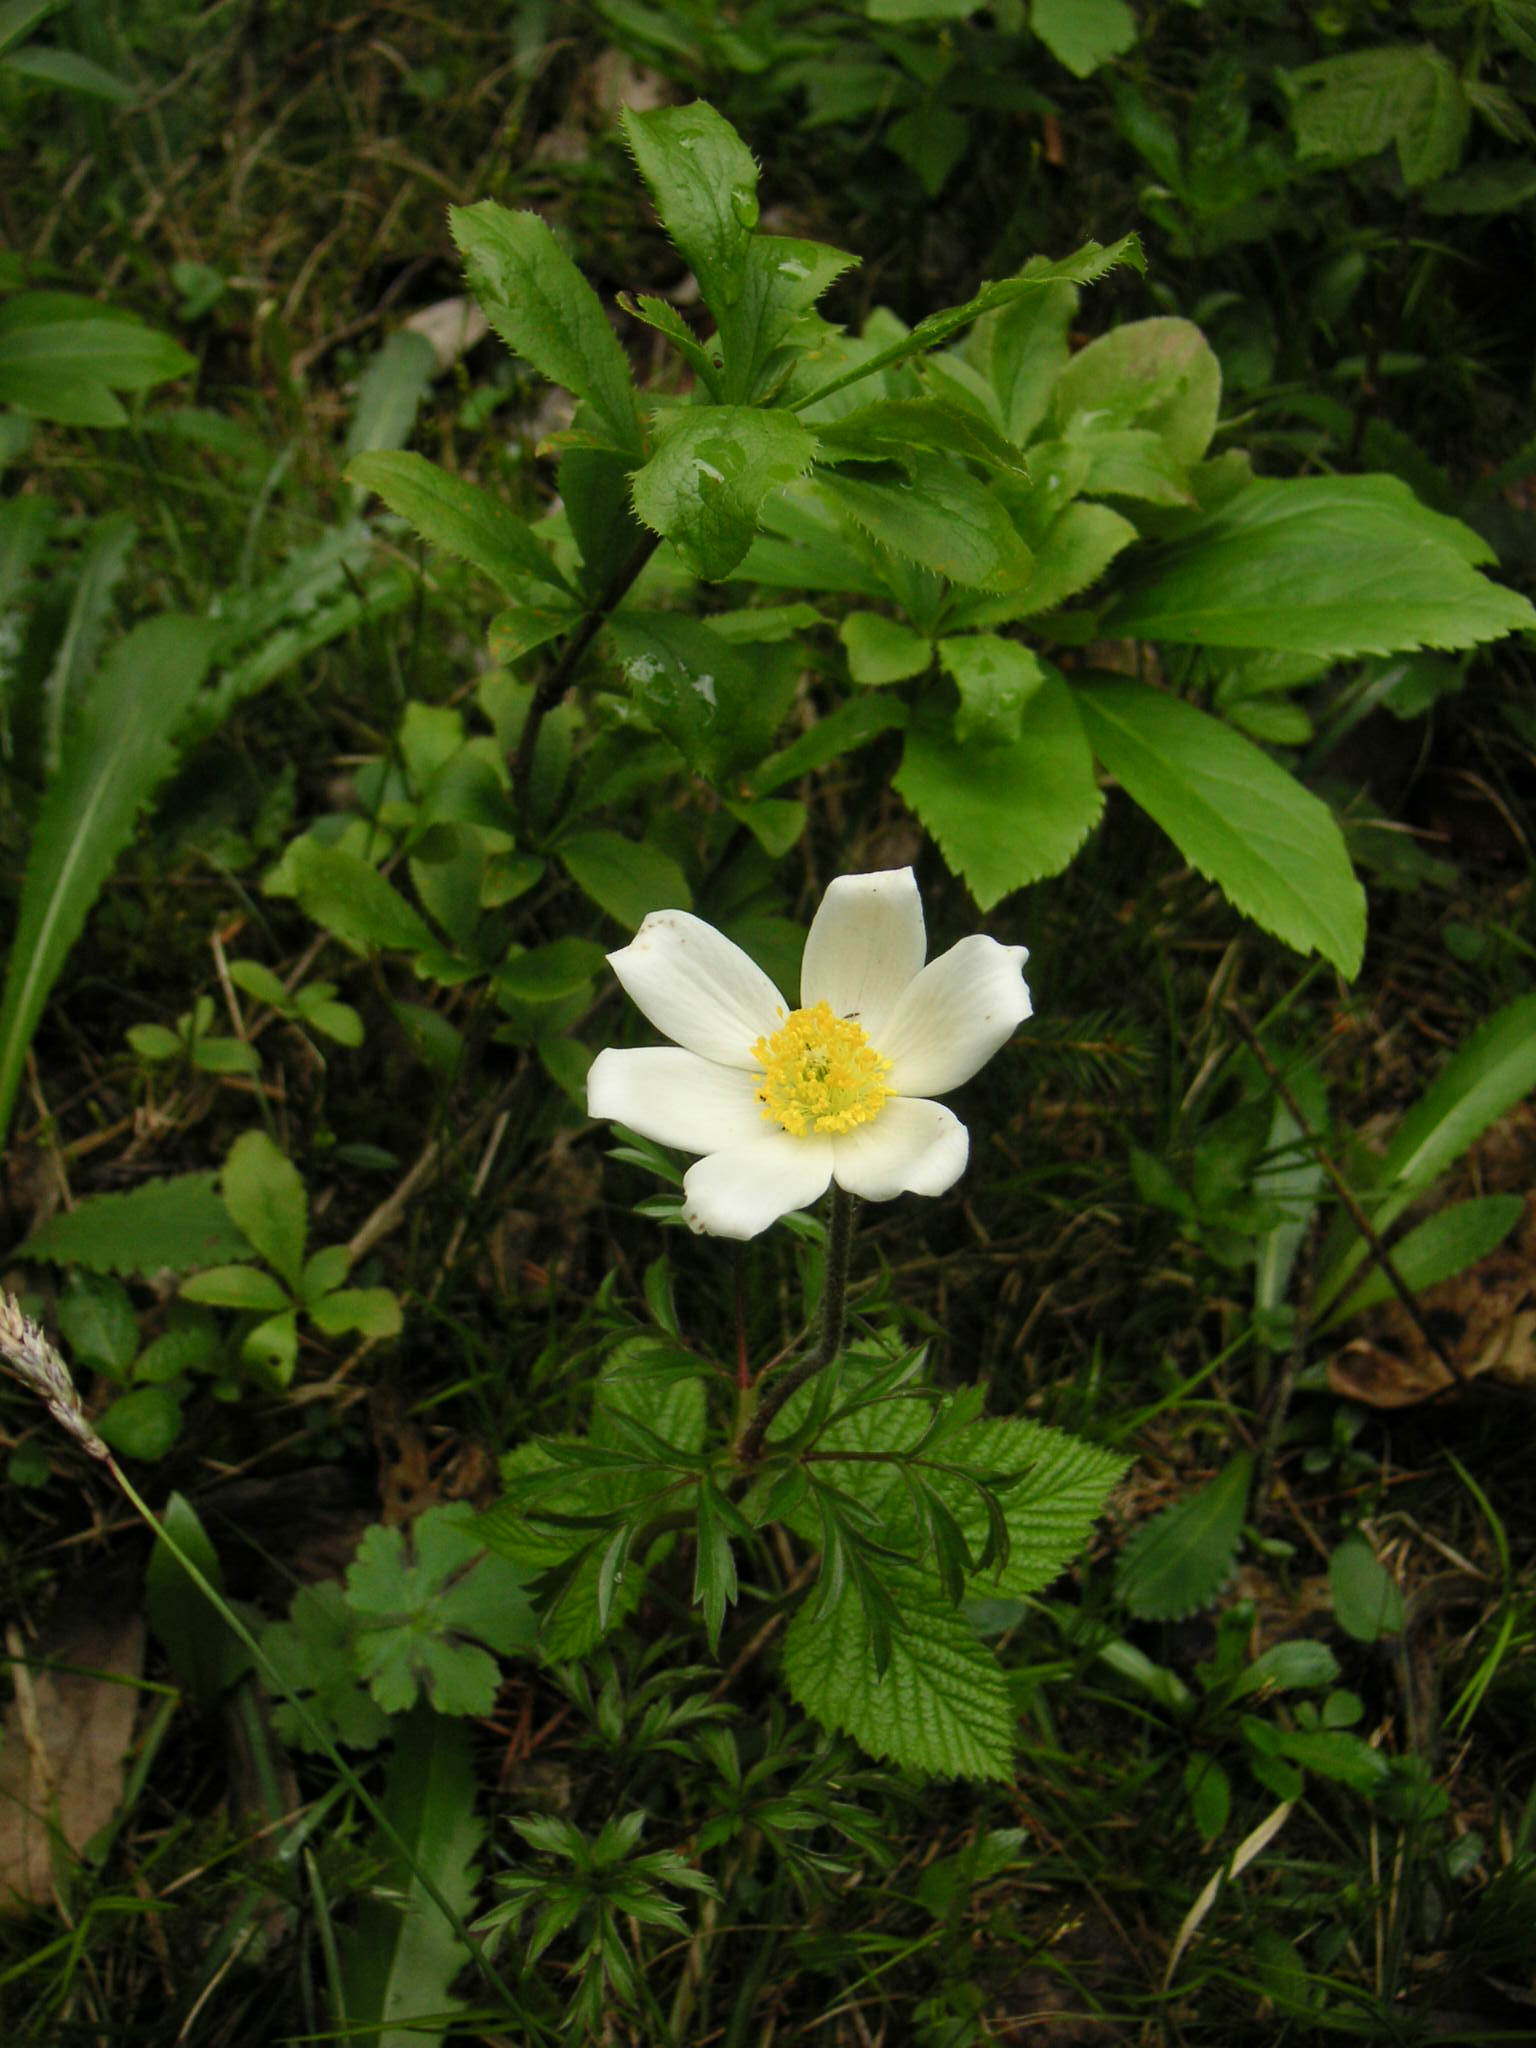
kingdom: Plantae
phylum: Tracheophyta
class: Magnoliopsida
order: Ranunculales
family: Ranunculaceae
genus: Pulsatilla
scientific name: Pulsatilla alpina
